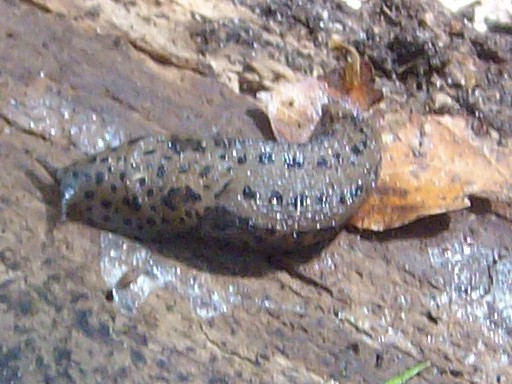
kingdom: Animalia
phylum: Mollusca
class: Gastropoda
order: Stylommatophora
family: Limacidae
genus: Limax
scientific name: Limax maximus
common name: Great grey slug
